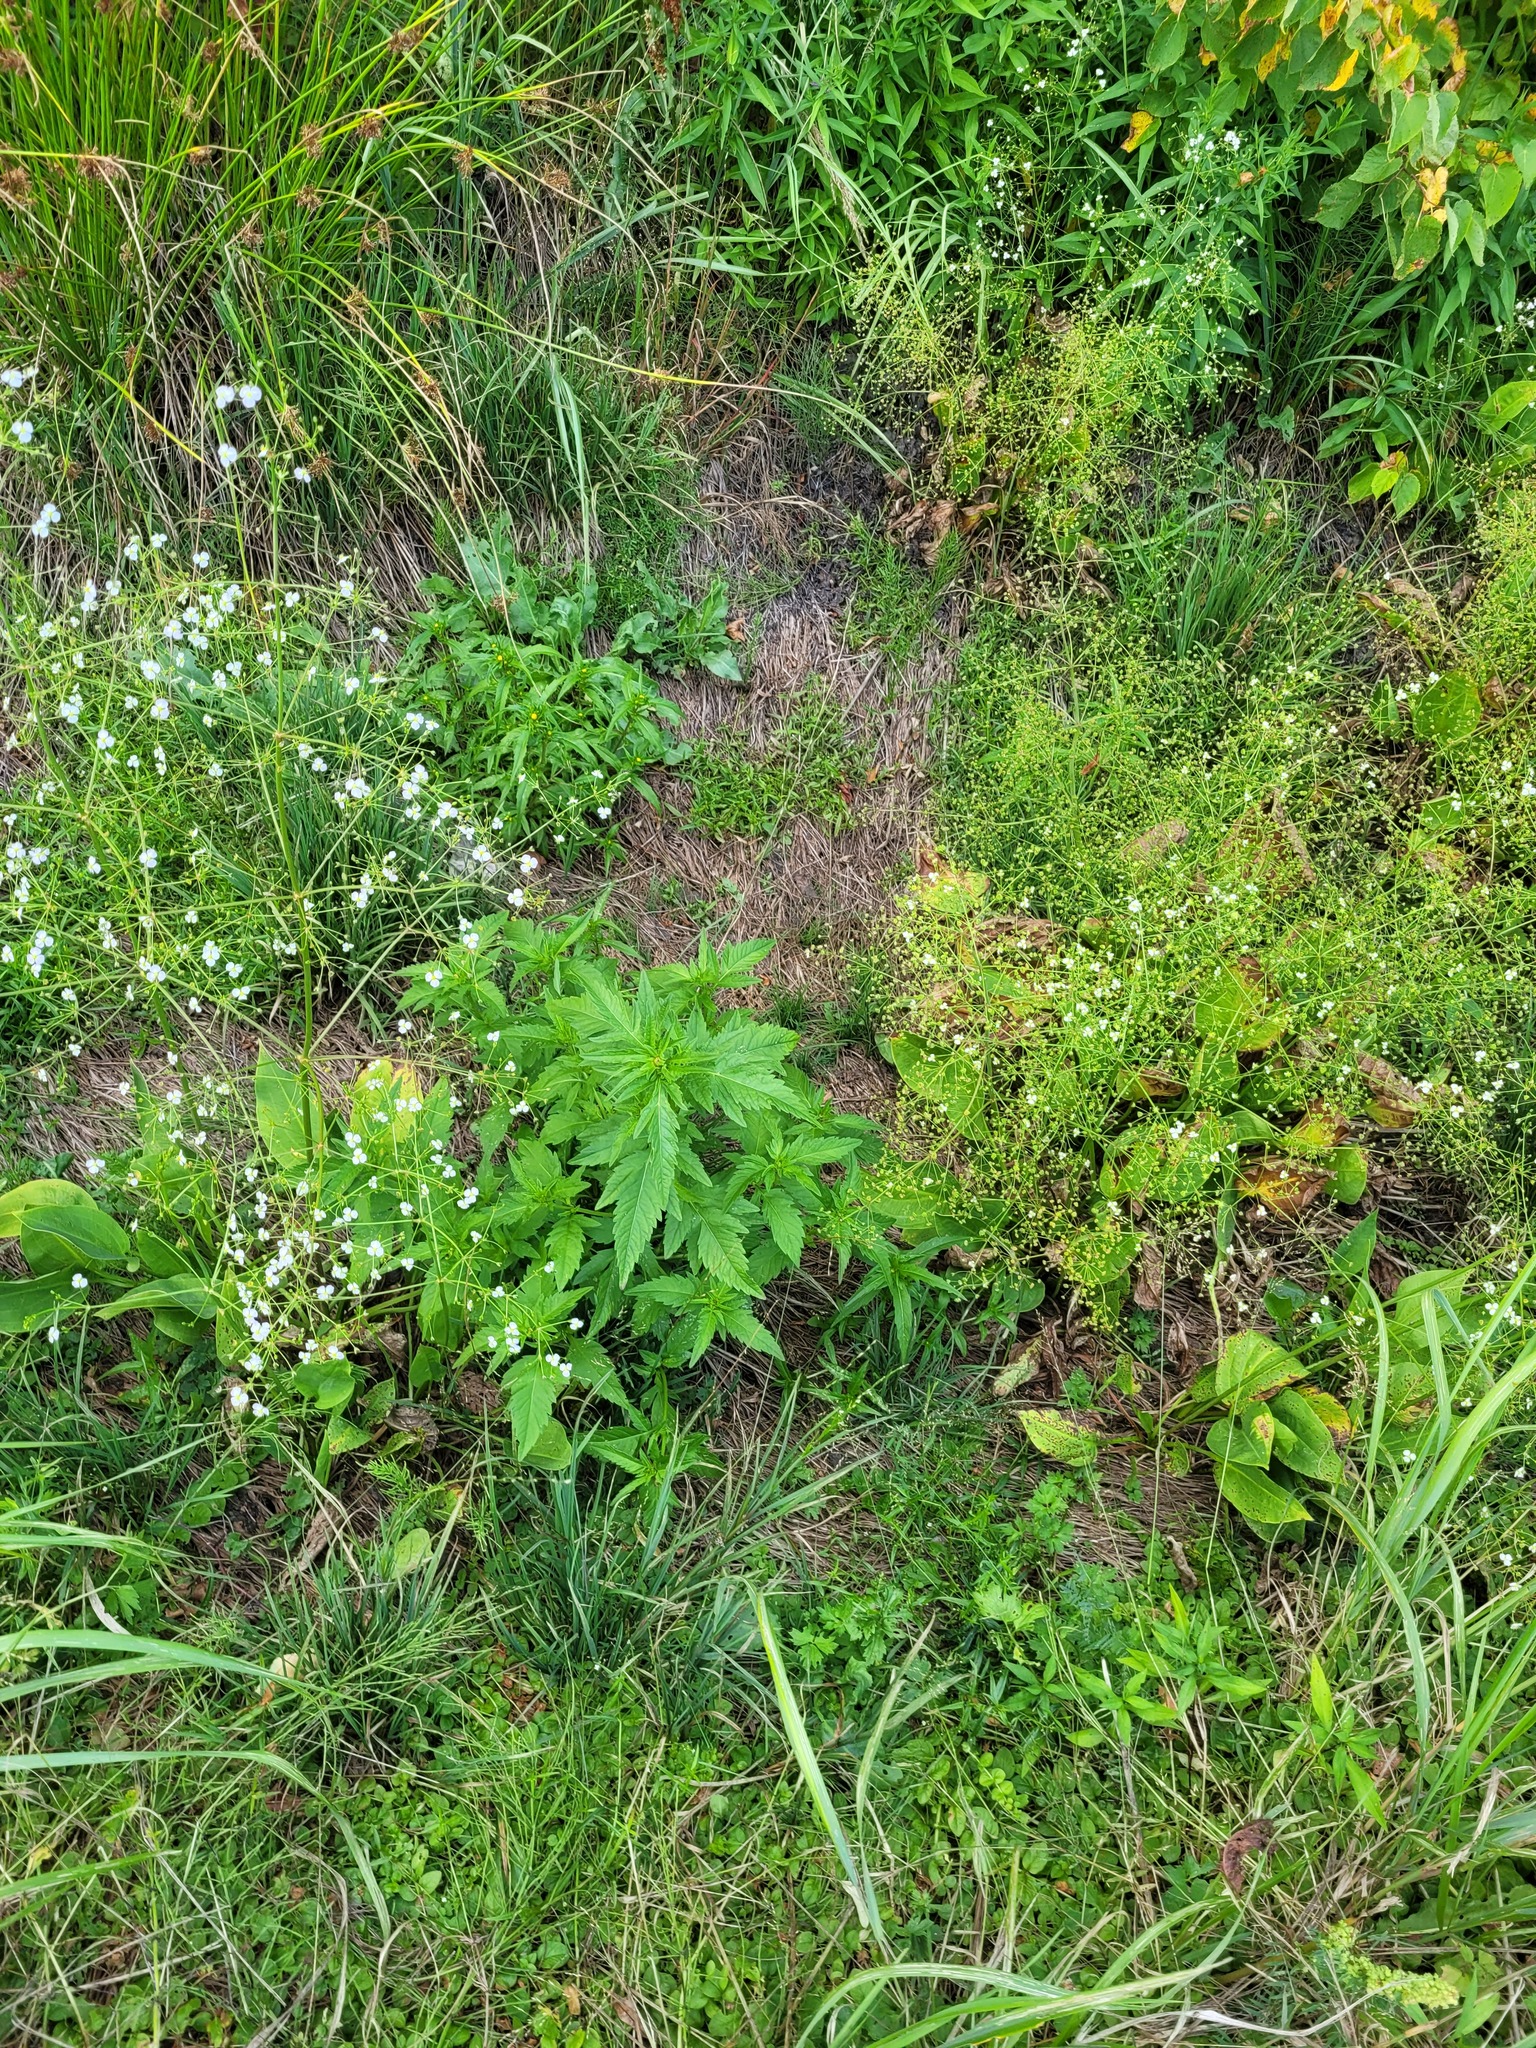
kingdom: Plantae
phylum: Tracheophyta
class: Magnoliopsida
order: Asterales
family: Asteraceae
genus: Bidens
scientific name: Bidens tripartita
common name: Trifid bur-marigold
